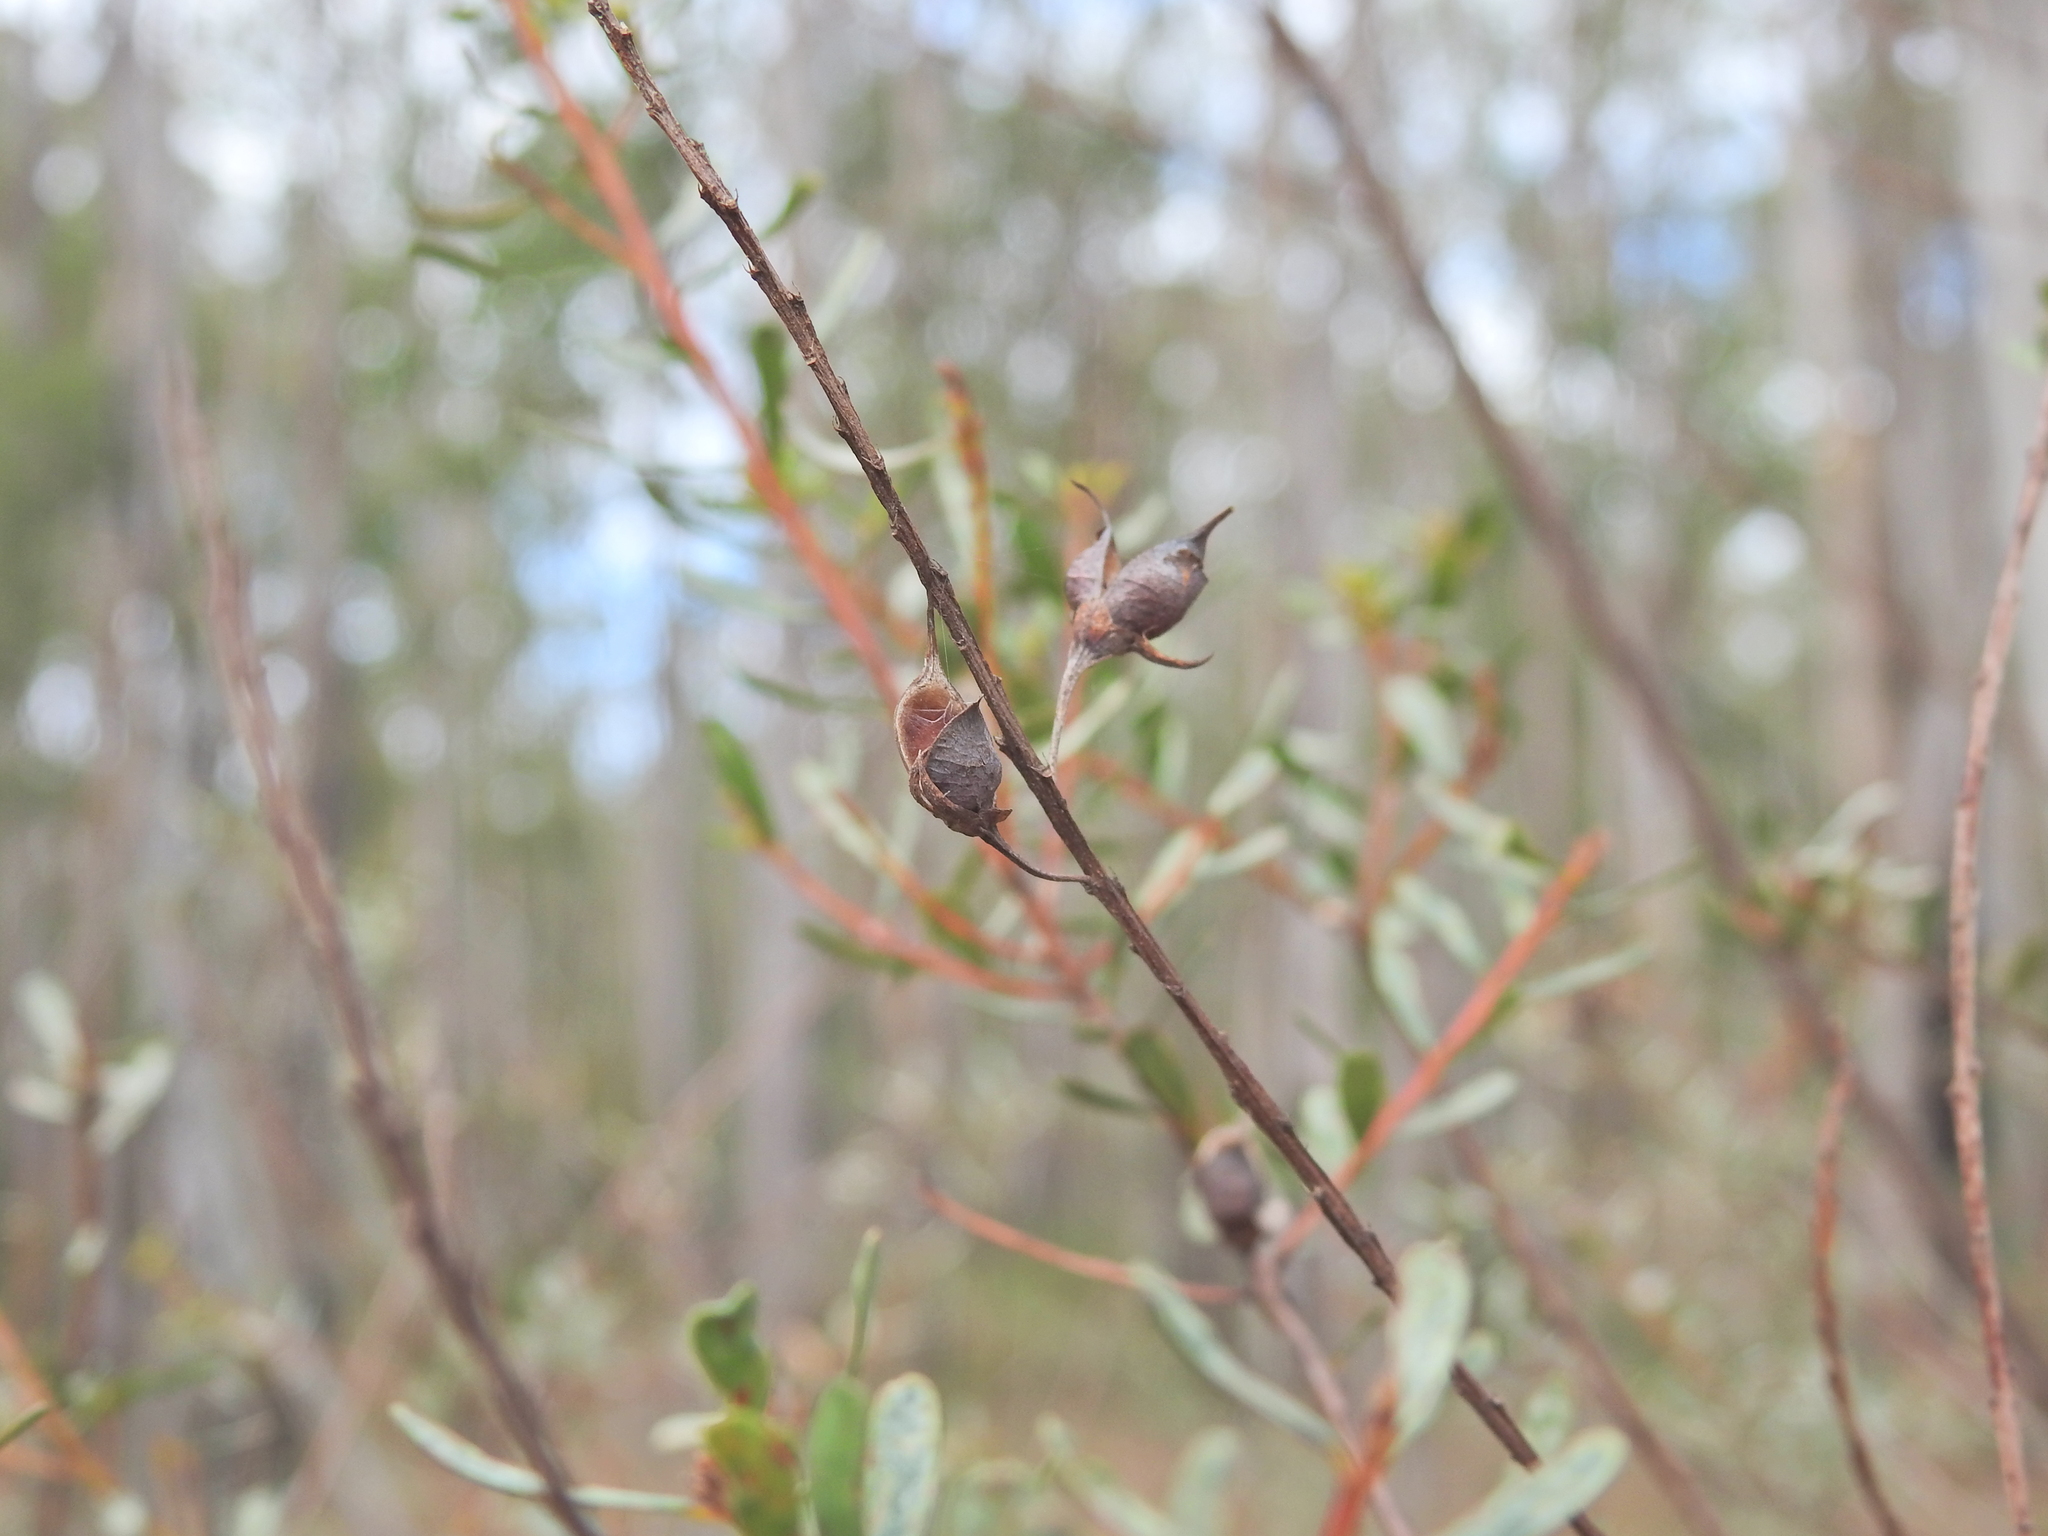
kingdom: Plantae
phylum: Tracheophyta
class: Magnoliopsida
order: Fabales
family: Fabaceae
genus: Pultenaea
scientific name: Pultenaea euchila
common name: Large-flower bush-pea
